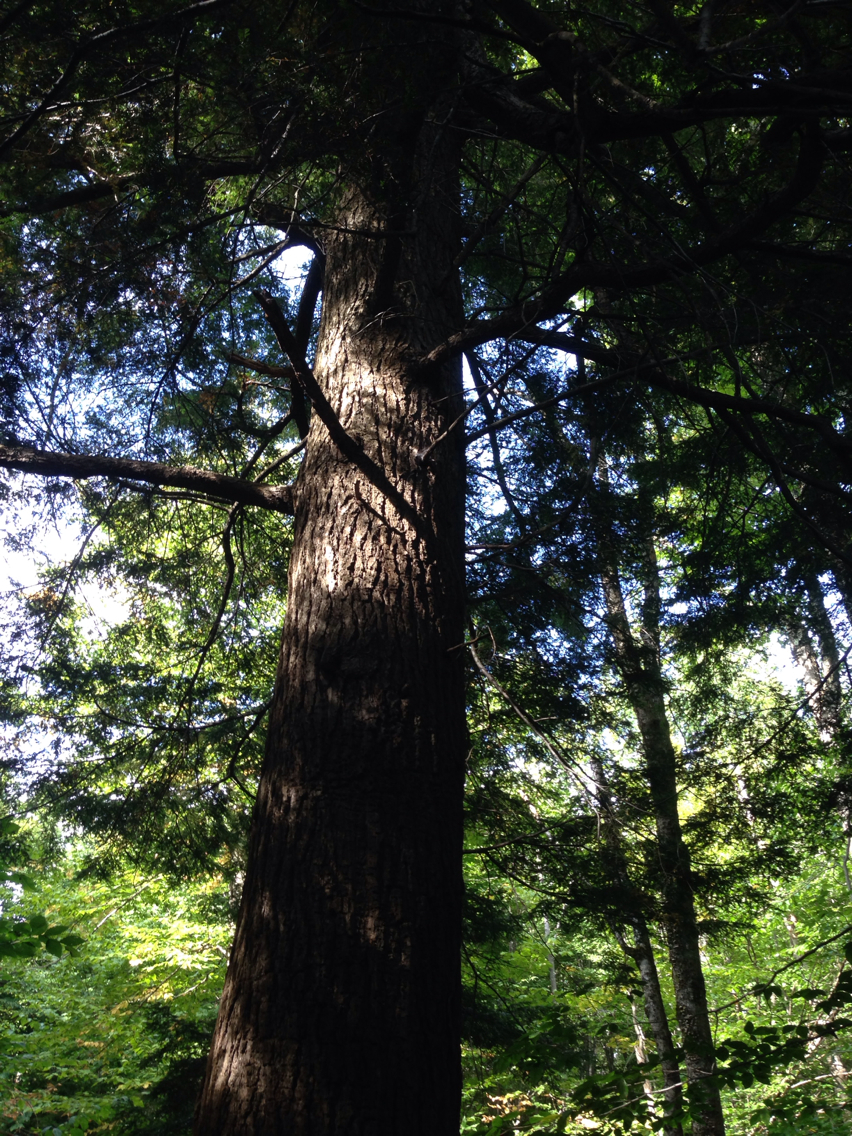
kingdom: Plantae
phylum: Tracheophyta
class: Pinopsida
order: Pinales
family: Pinaceae
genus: Tsuga
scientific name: Tsuga canadensis
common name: Eastern hemlock
